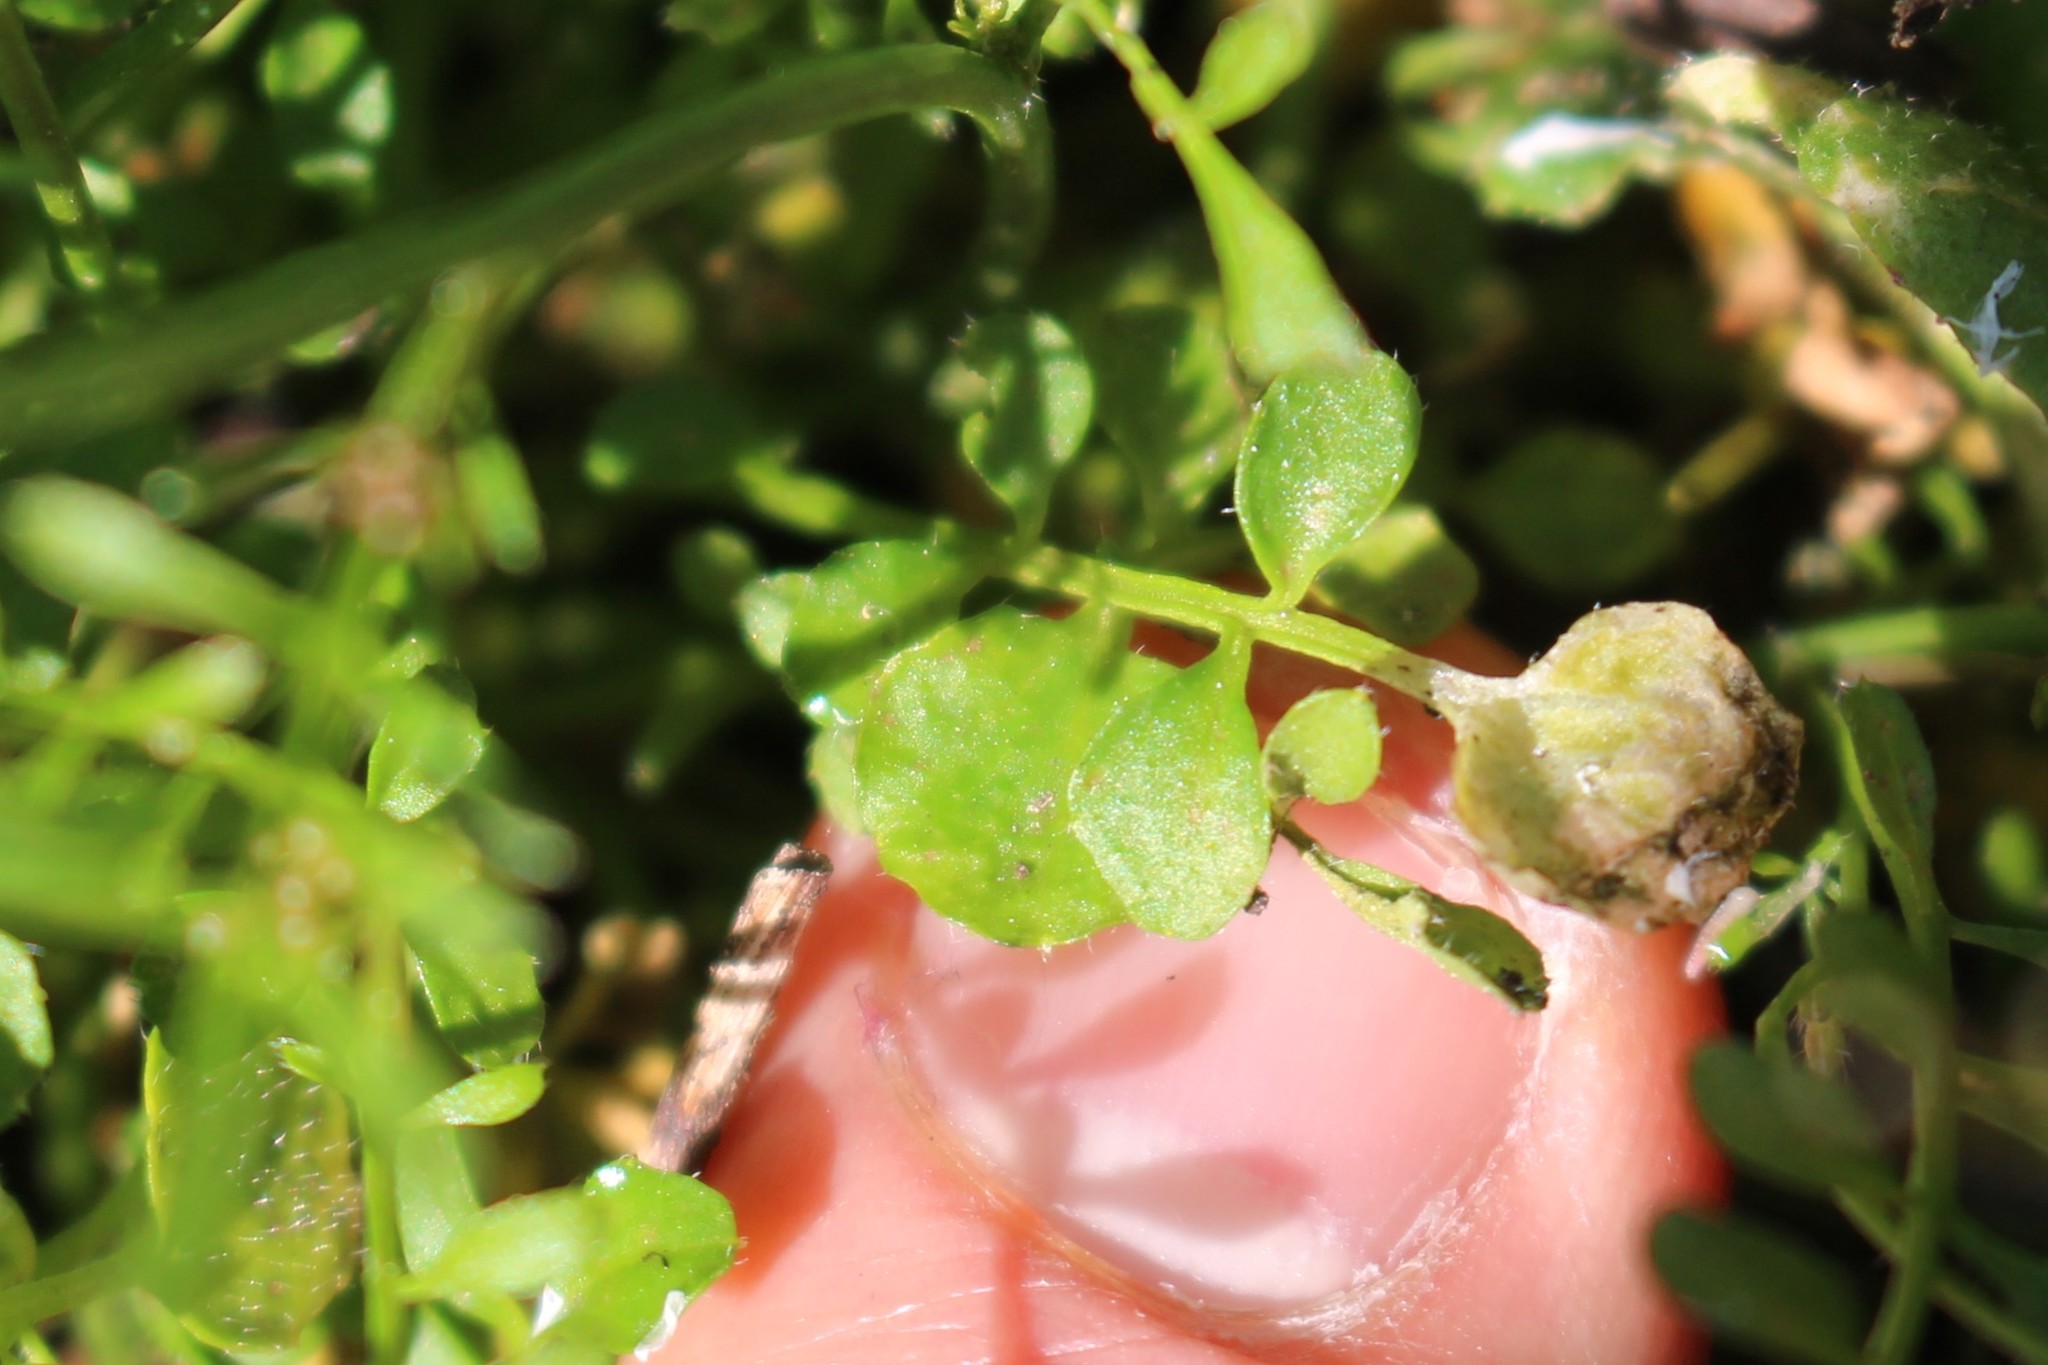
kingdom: Plantae
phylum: Tracheophyta
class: Magnoliopsida
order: Brassicales
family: Brassicaceae
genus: Cardamine
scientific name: Cardamine hirsuta
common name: Hairy bittercress
